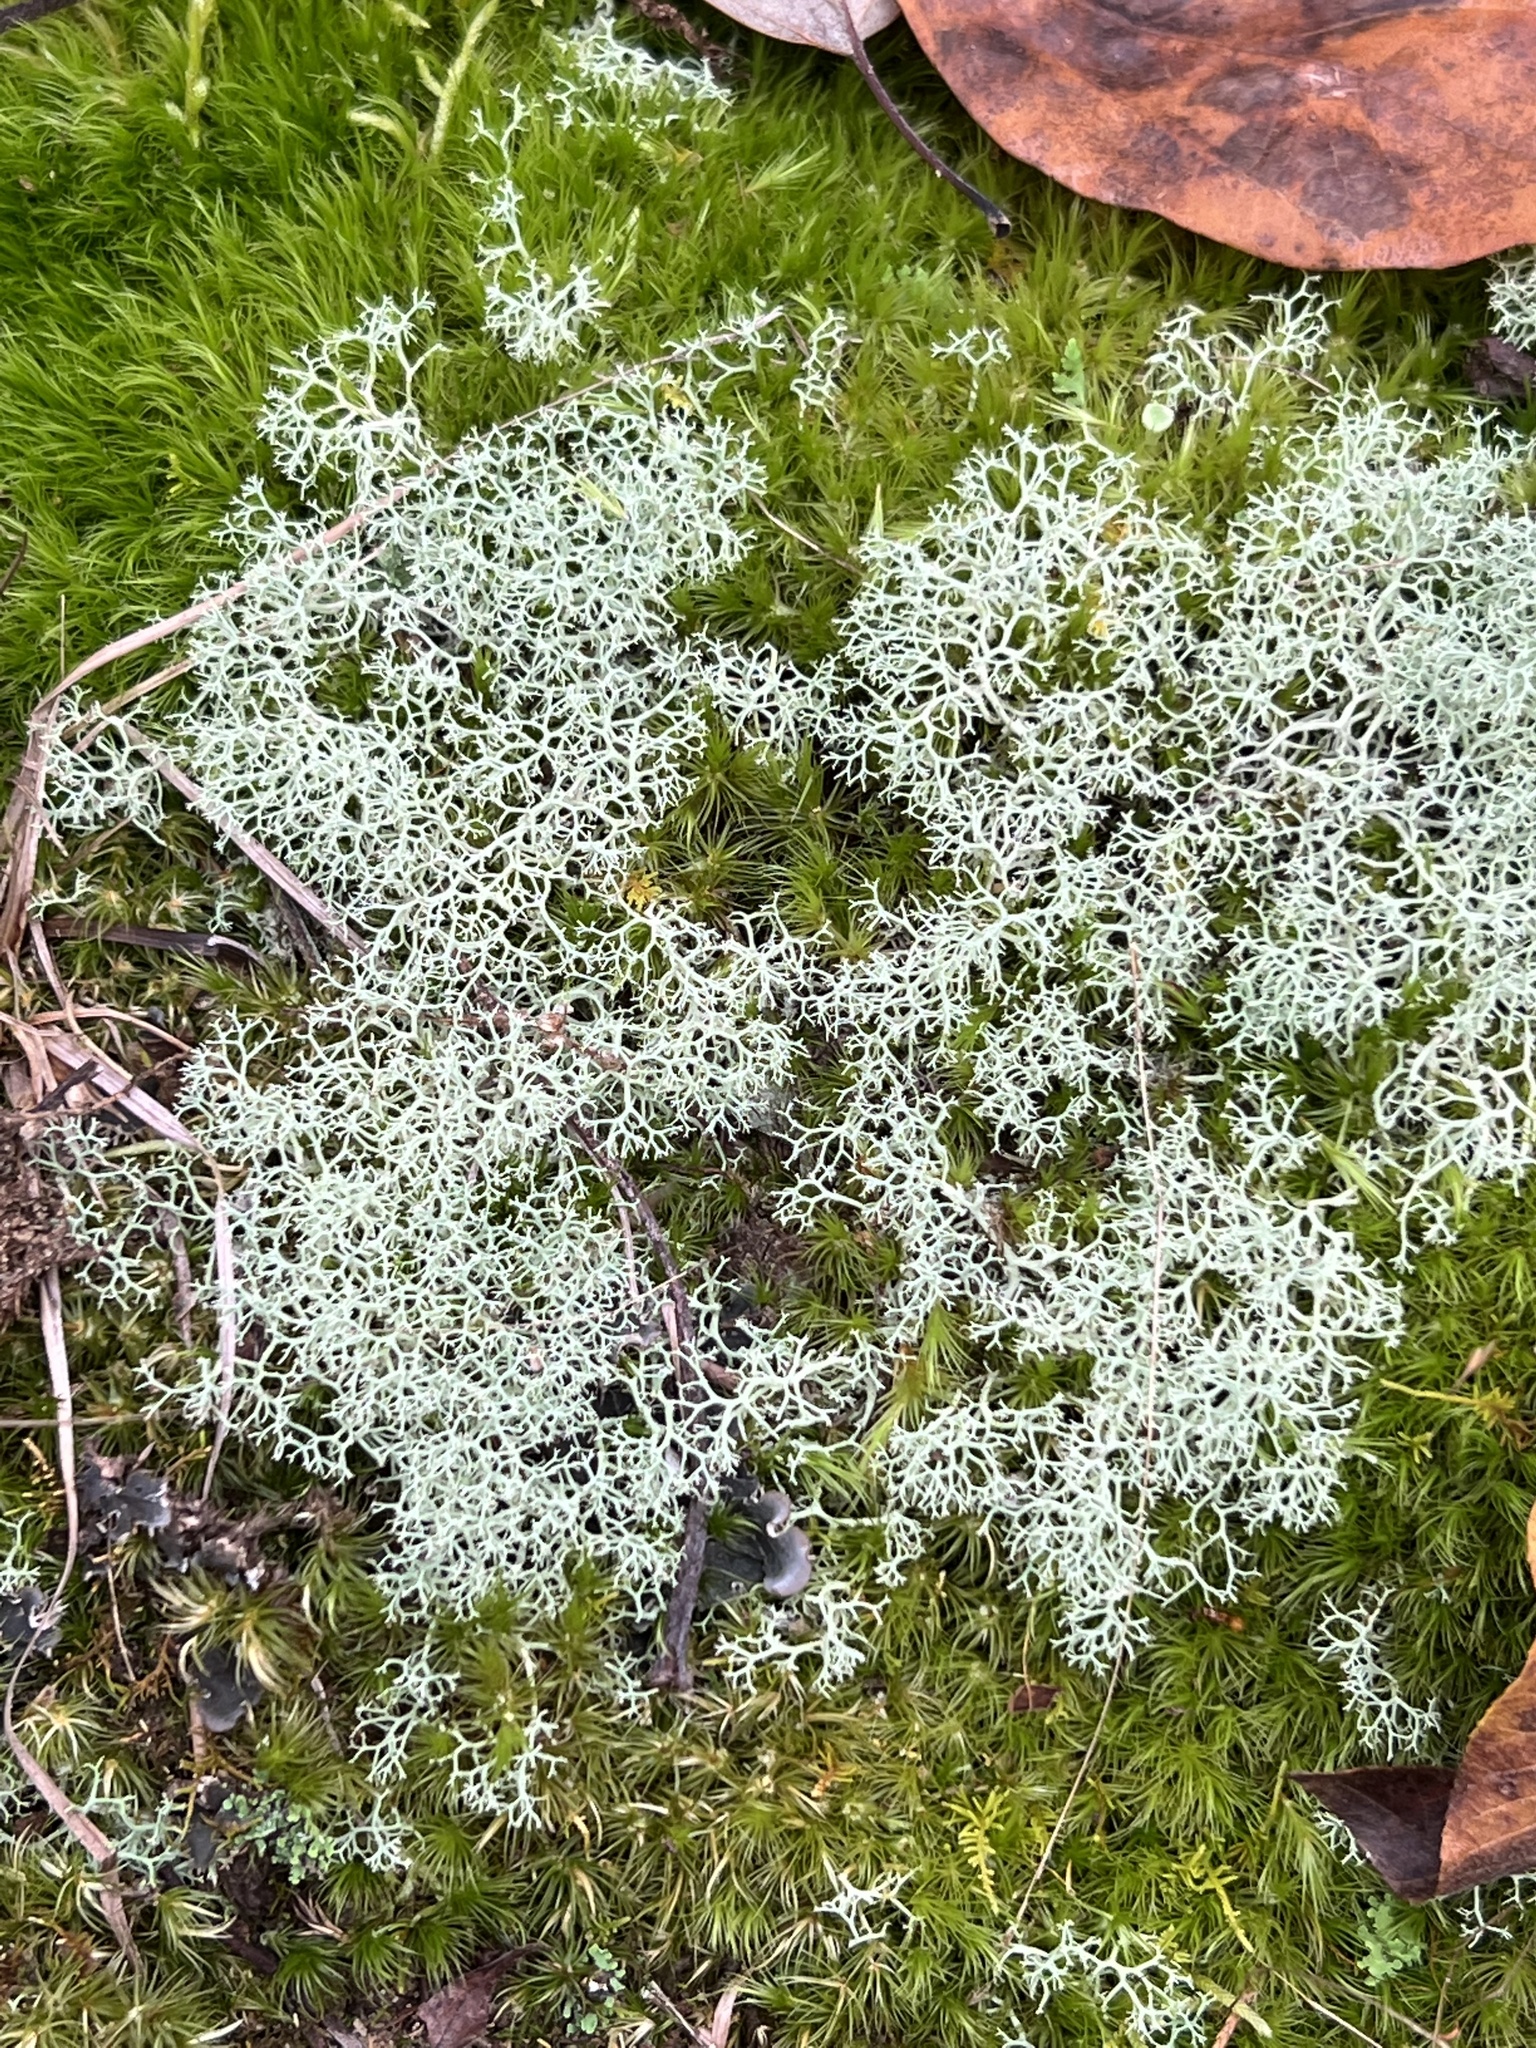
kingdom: Fungi
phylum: Ascomycota
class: Lecanoromycetes
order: Lecanorales
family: Cladoniaceae
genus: Cladonia
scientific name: Cladonia rangiferina
